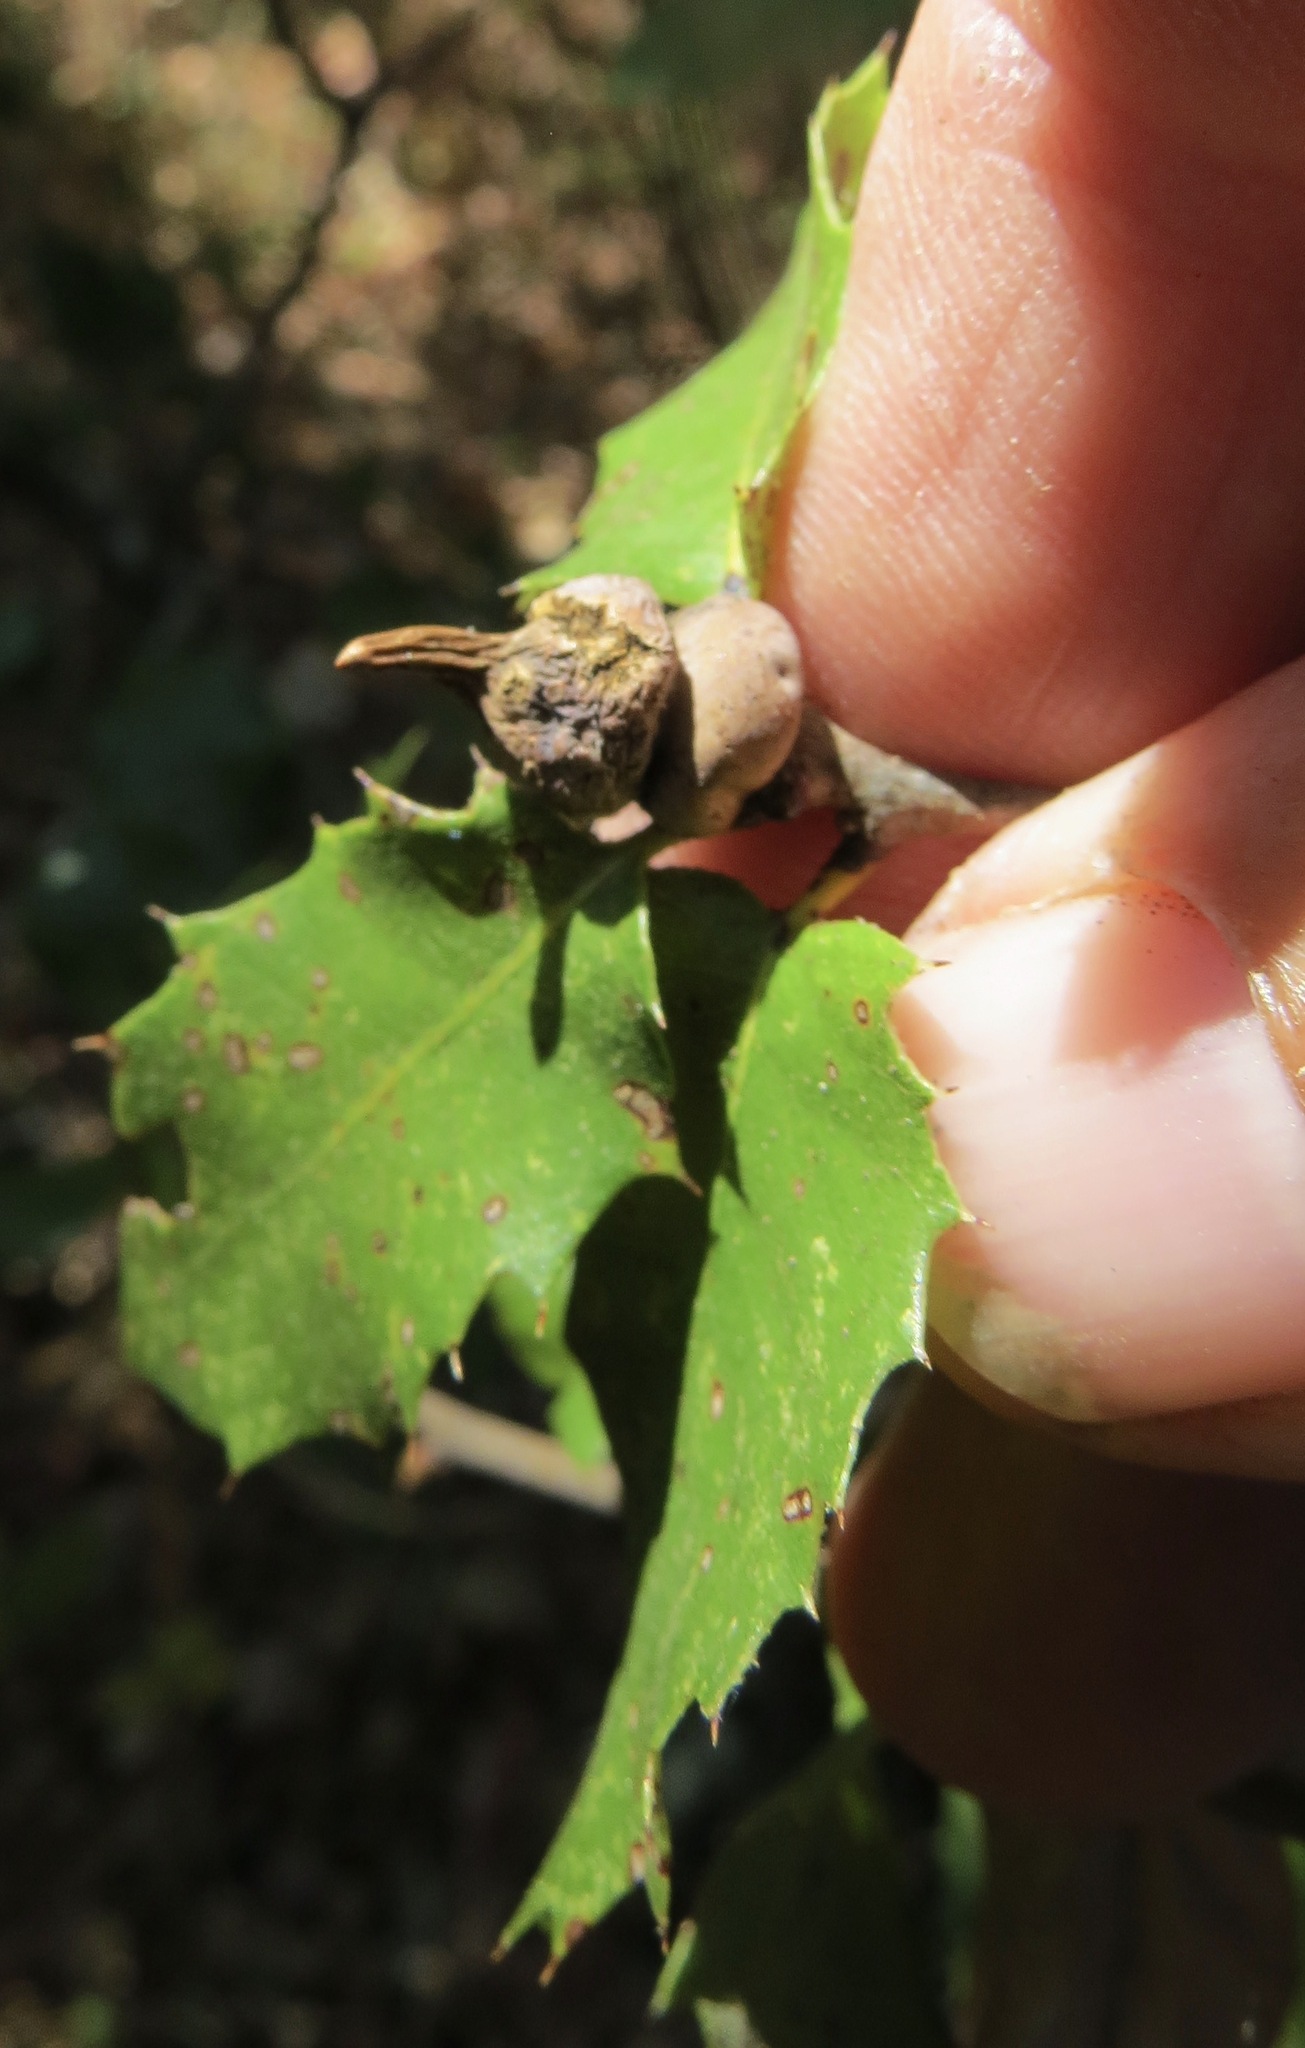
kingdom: Animalia
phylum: Arthropoda
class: Insecta
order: Hymenoptera
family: Cynipidae
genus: Heteroecus
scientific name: Heteroecus
